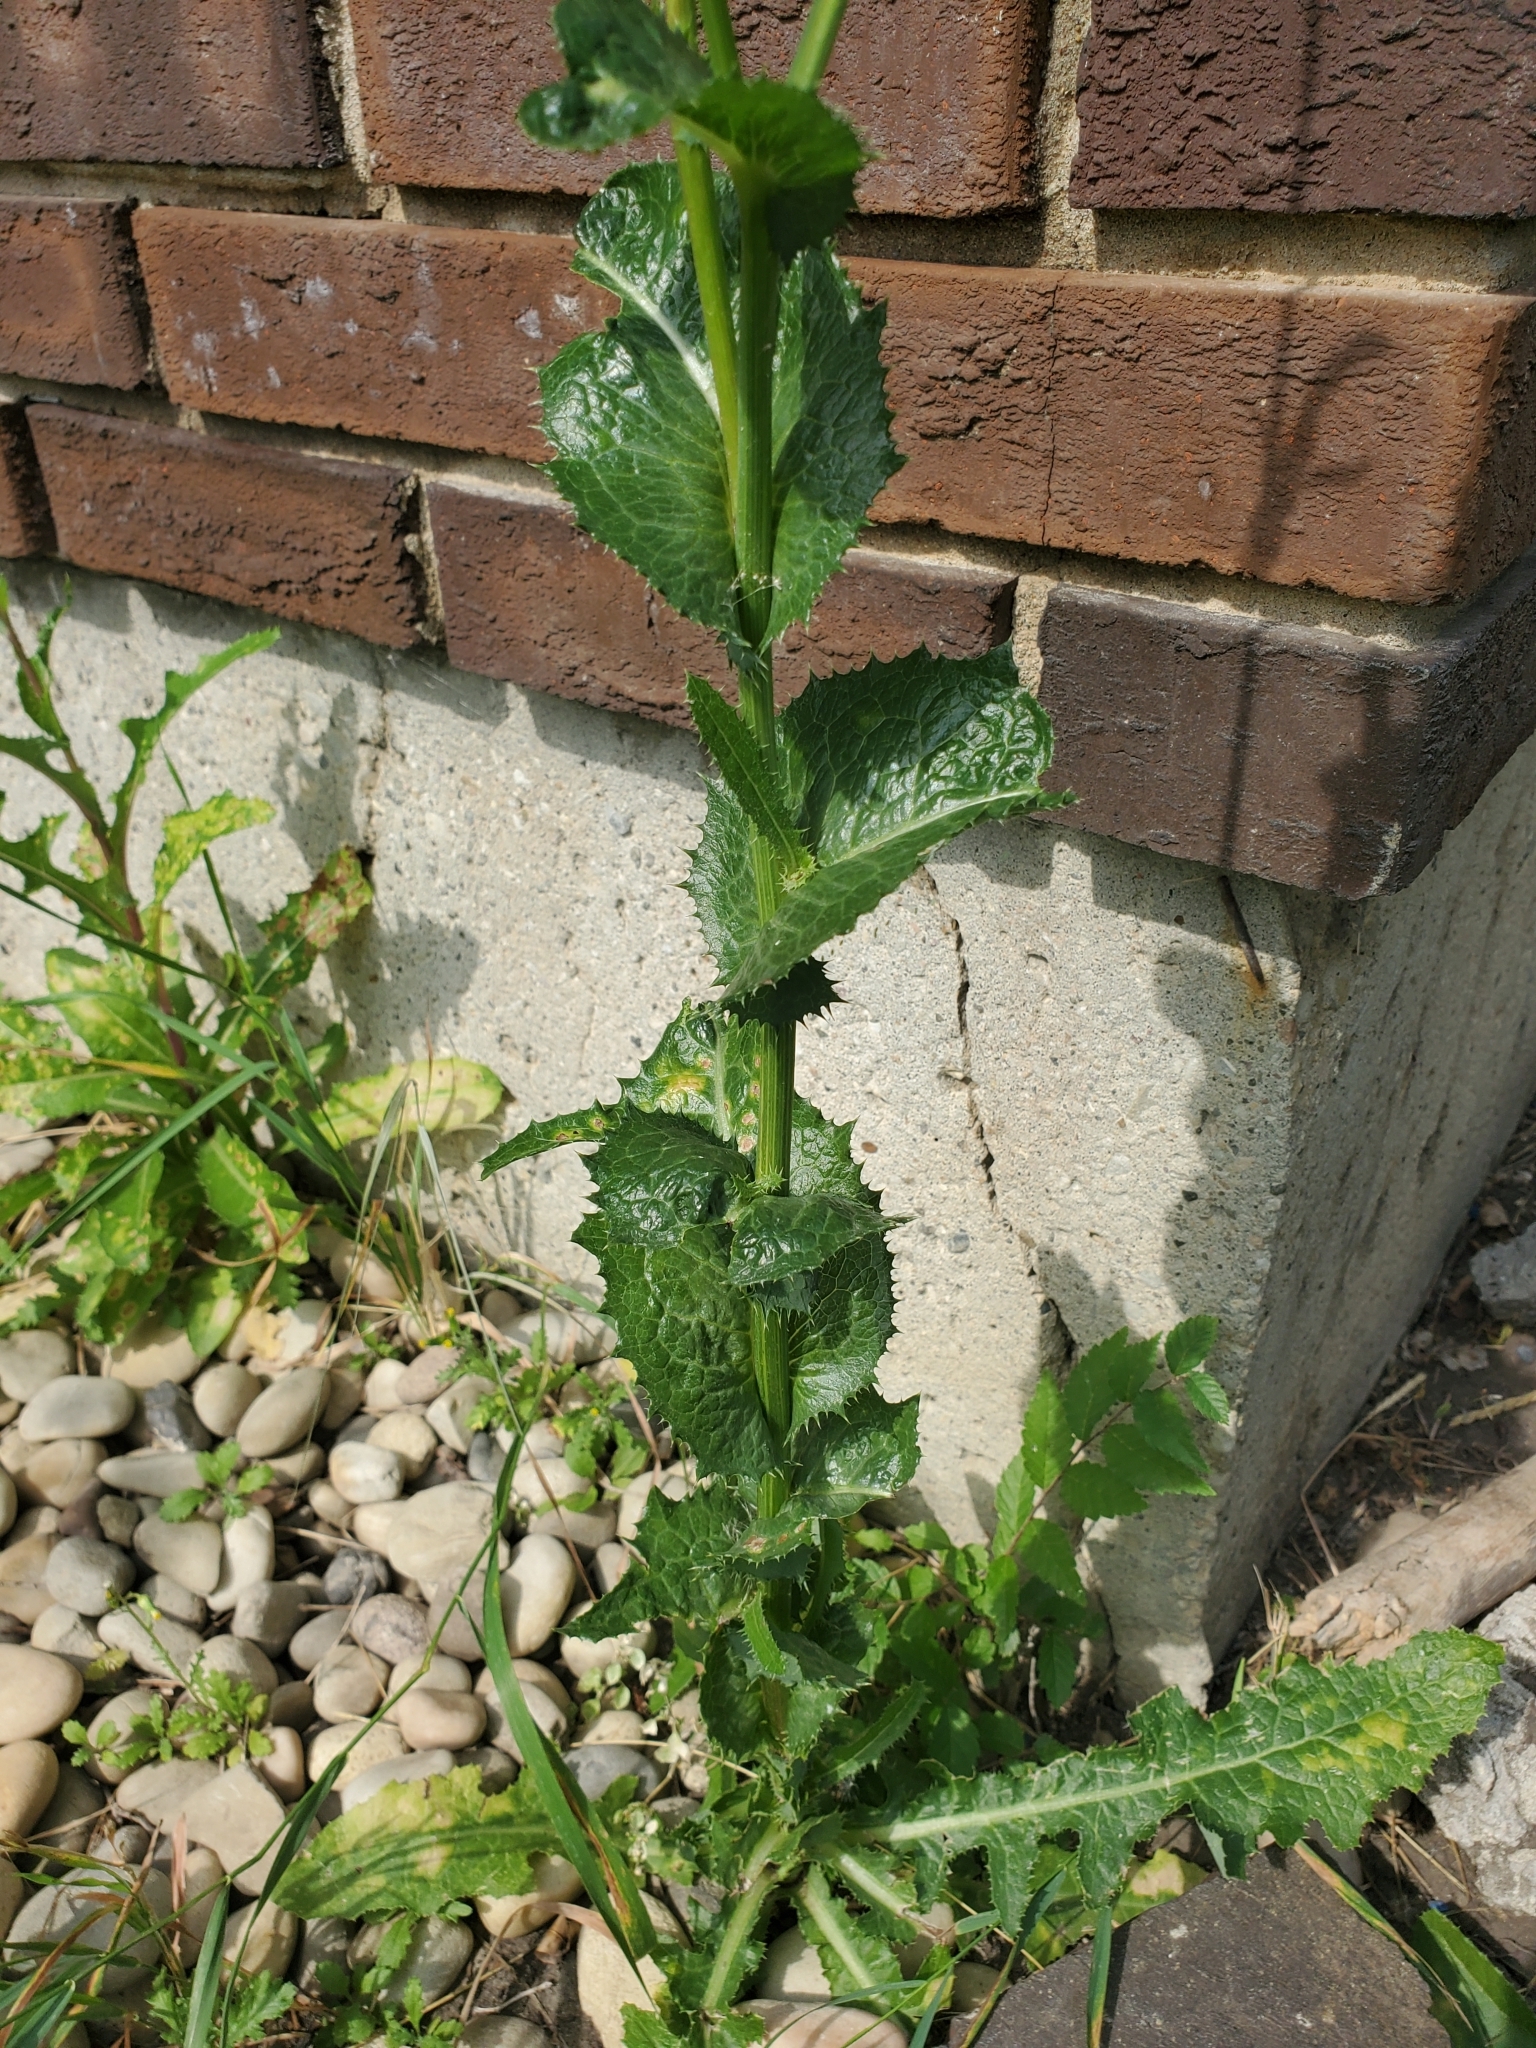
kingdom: Plantae
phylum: Tracheophyta
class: Magnoliopsida
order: Asterales
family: Asteraceae
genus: Sonchus
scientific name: Sonchus asper
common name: Prickly sow-thistle
